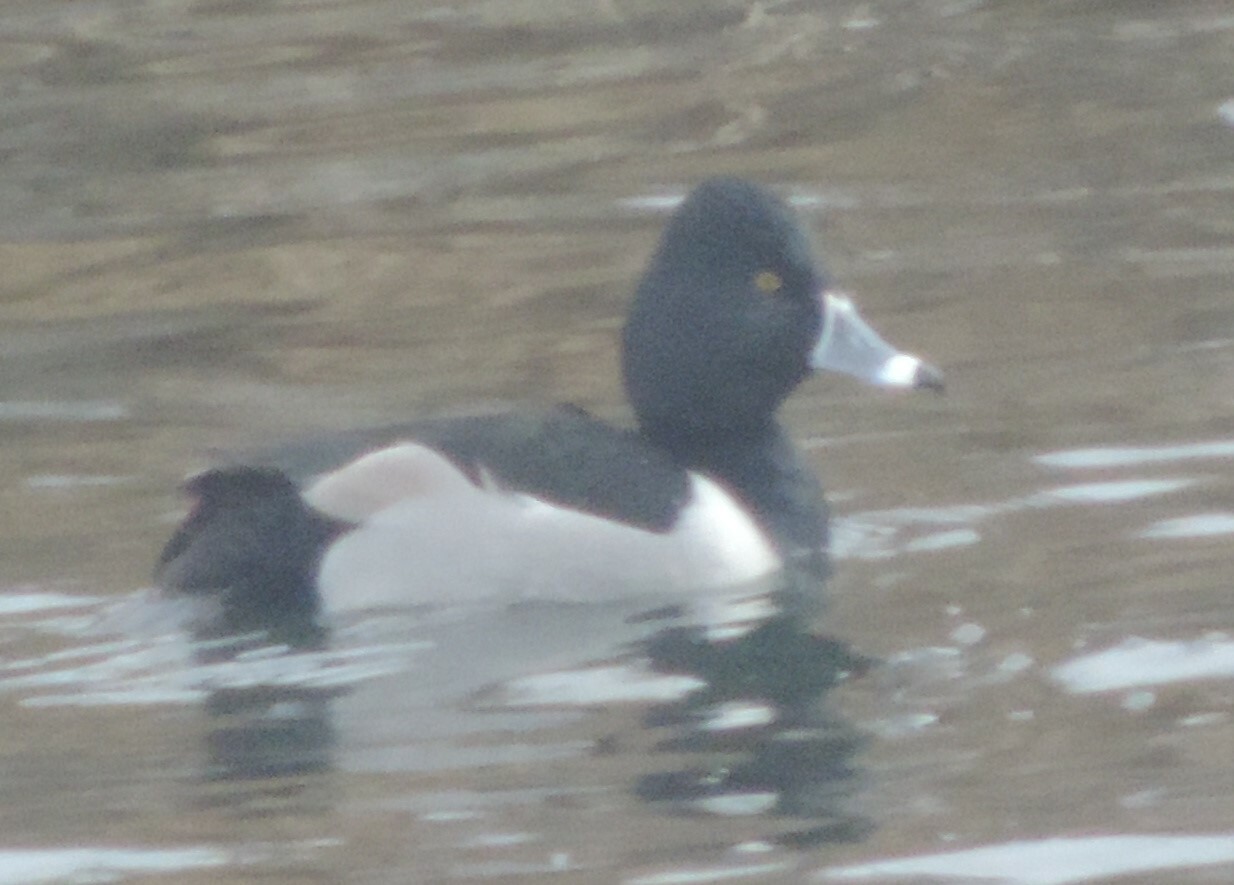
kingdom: Animalia
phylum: Chordata
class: Aves
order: Anseriformes
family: Anatidae
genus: Aythya
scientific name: Aythya collaris
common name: Ring-necked duck
